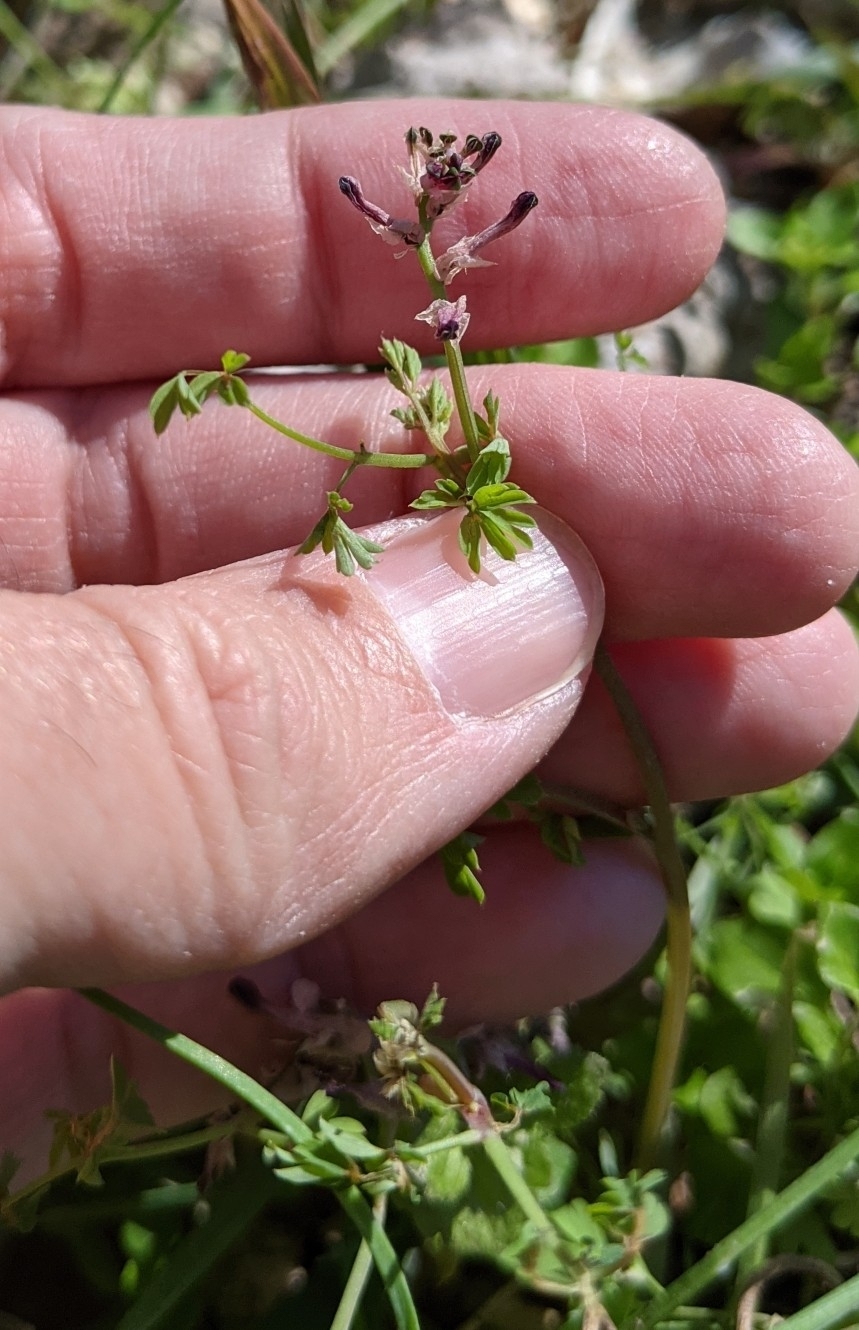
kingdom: Plantae
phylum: Tracheophyta
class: Magnoliopsida
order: Ranunculales
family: Papaveraceae
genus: Fumaria
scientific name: Fumaria muralis
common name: Common ramping-fumitory
